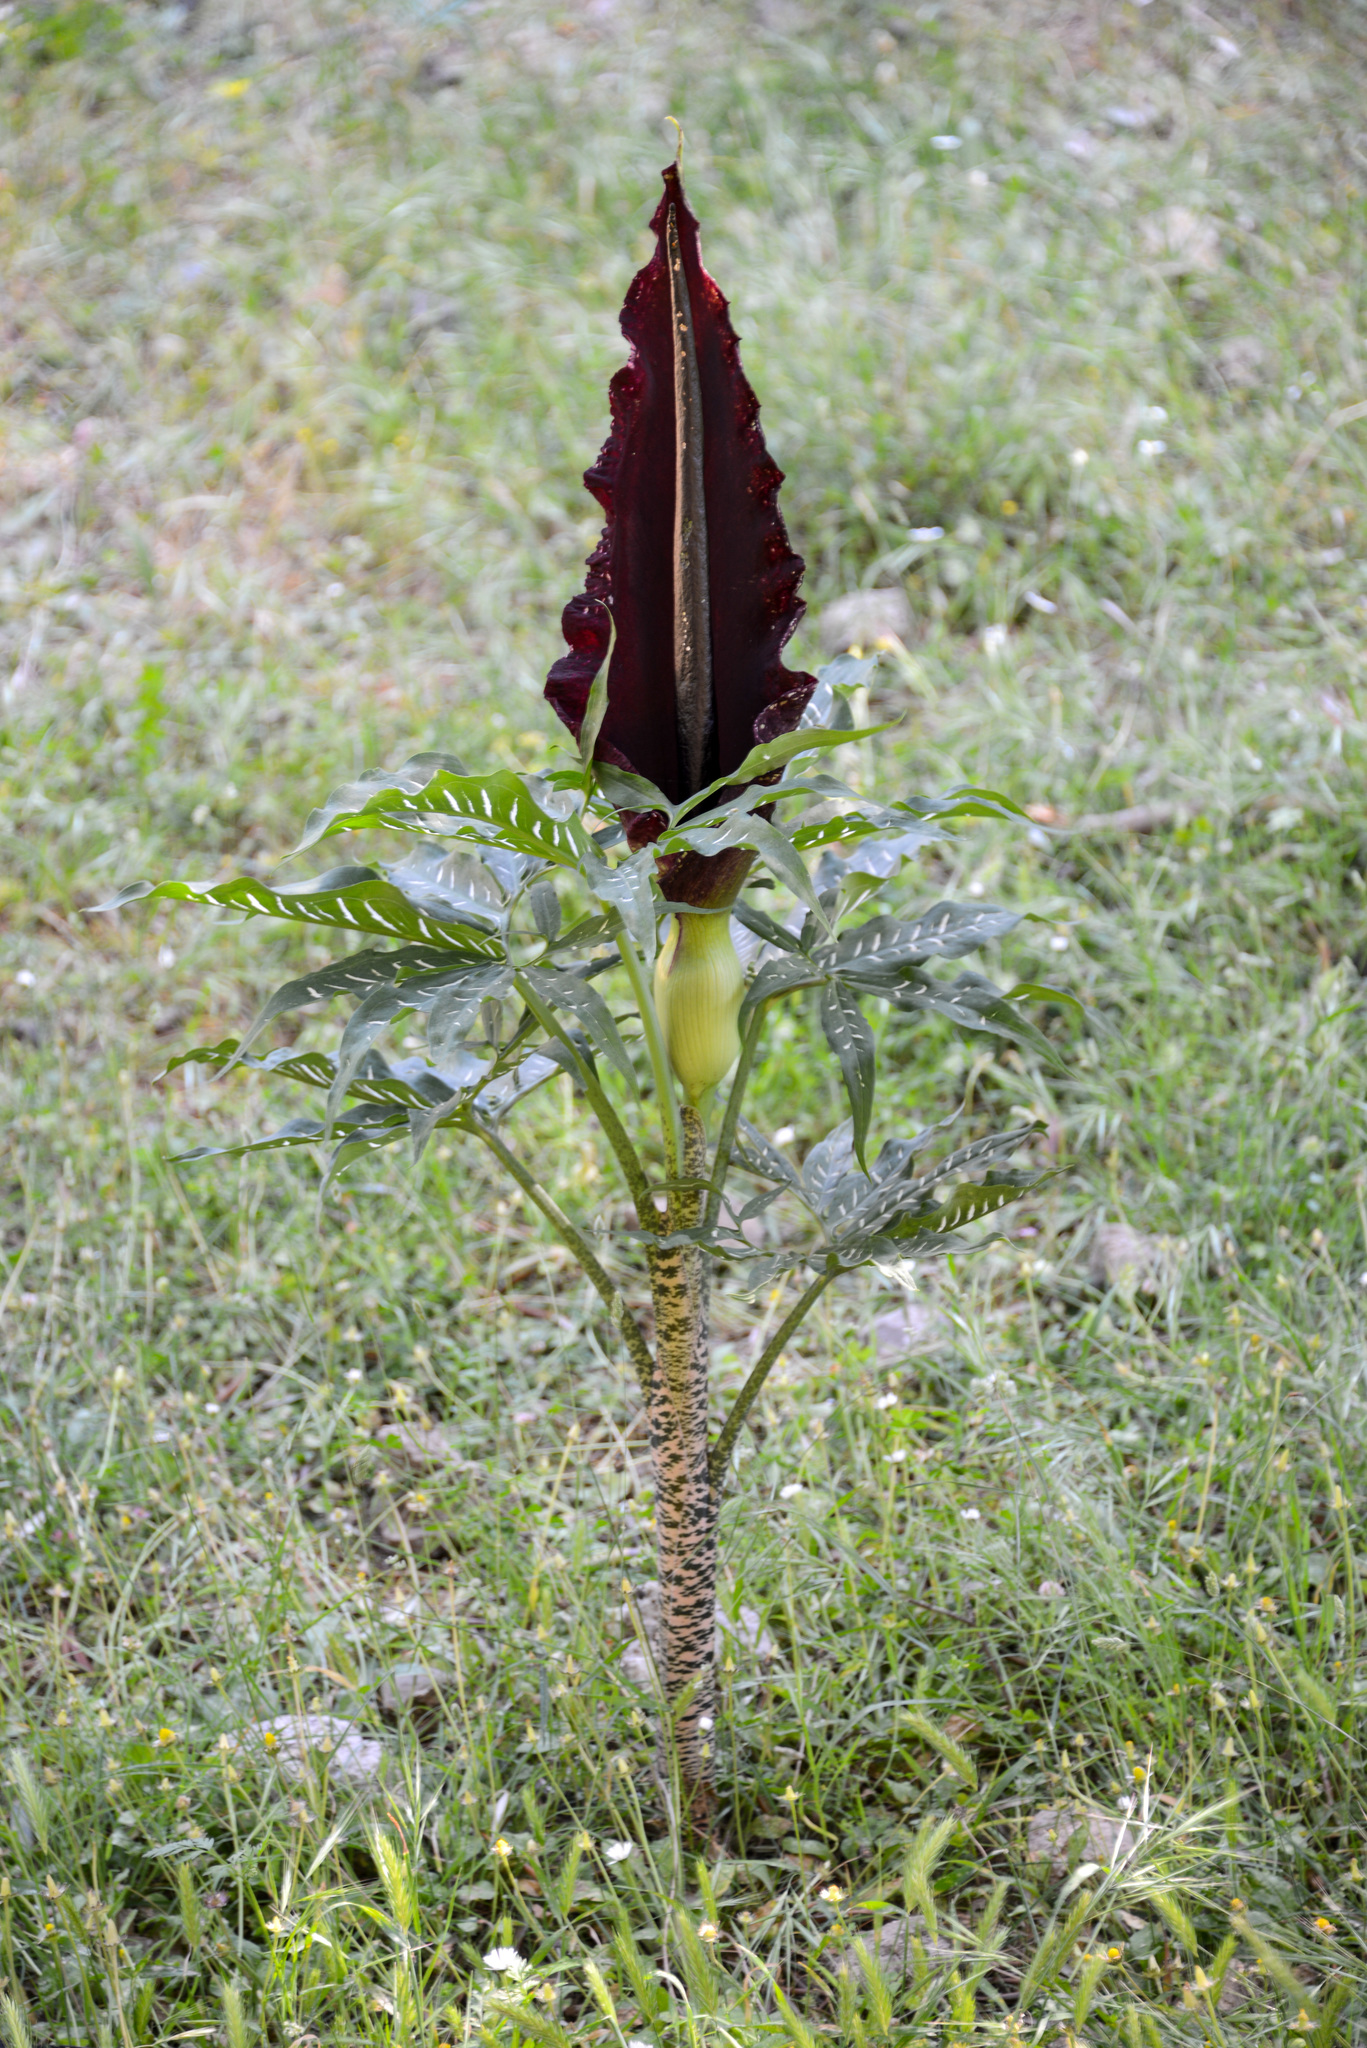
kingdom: Plantae
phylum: Tracheophyta
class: Liliopsida
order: Alismatales
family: Araceae
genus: Dracunculus
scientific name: Dracunculus vulgaris
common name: Dragon arum
